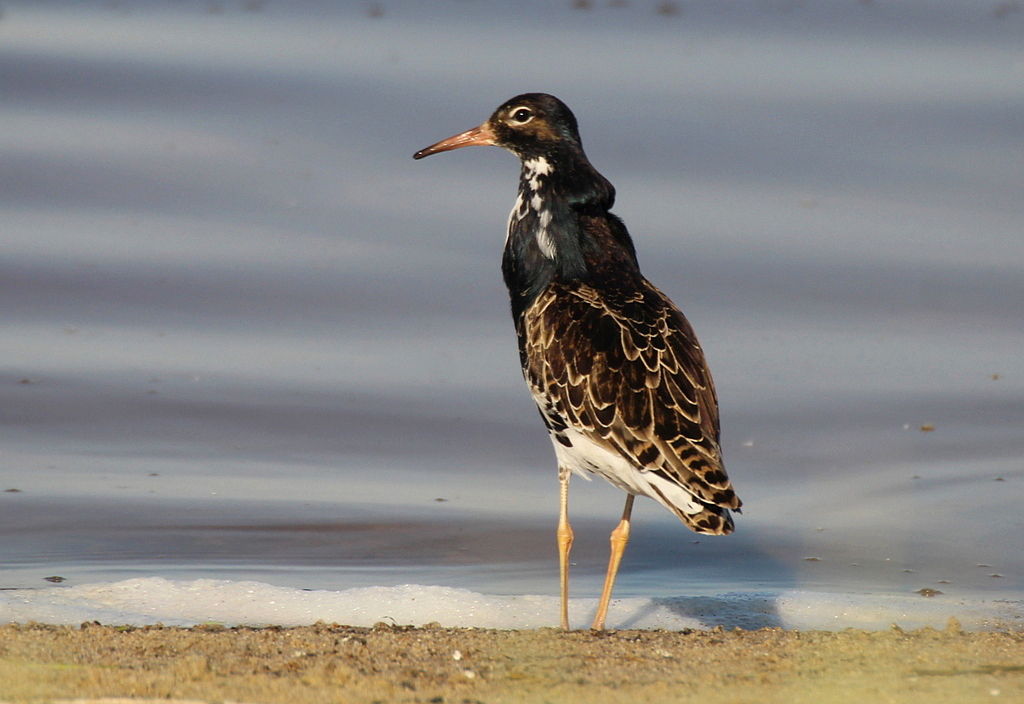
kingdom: Animalia
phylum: Chordata
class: Aves
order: Charadriiformes
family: Scolopacidae
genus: Calidris
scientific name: Calidris pugnax
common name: Ruff
